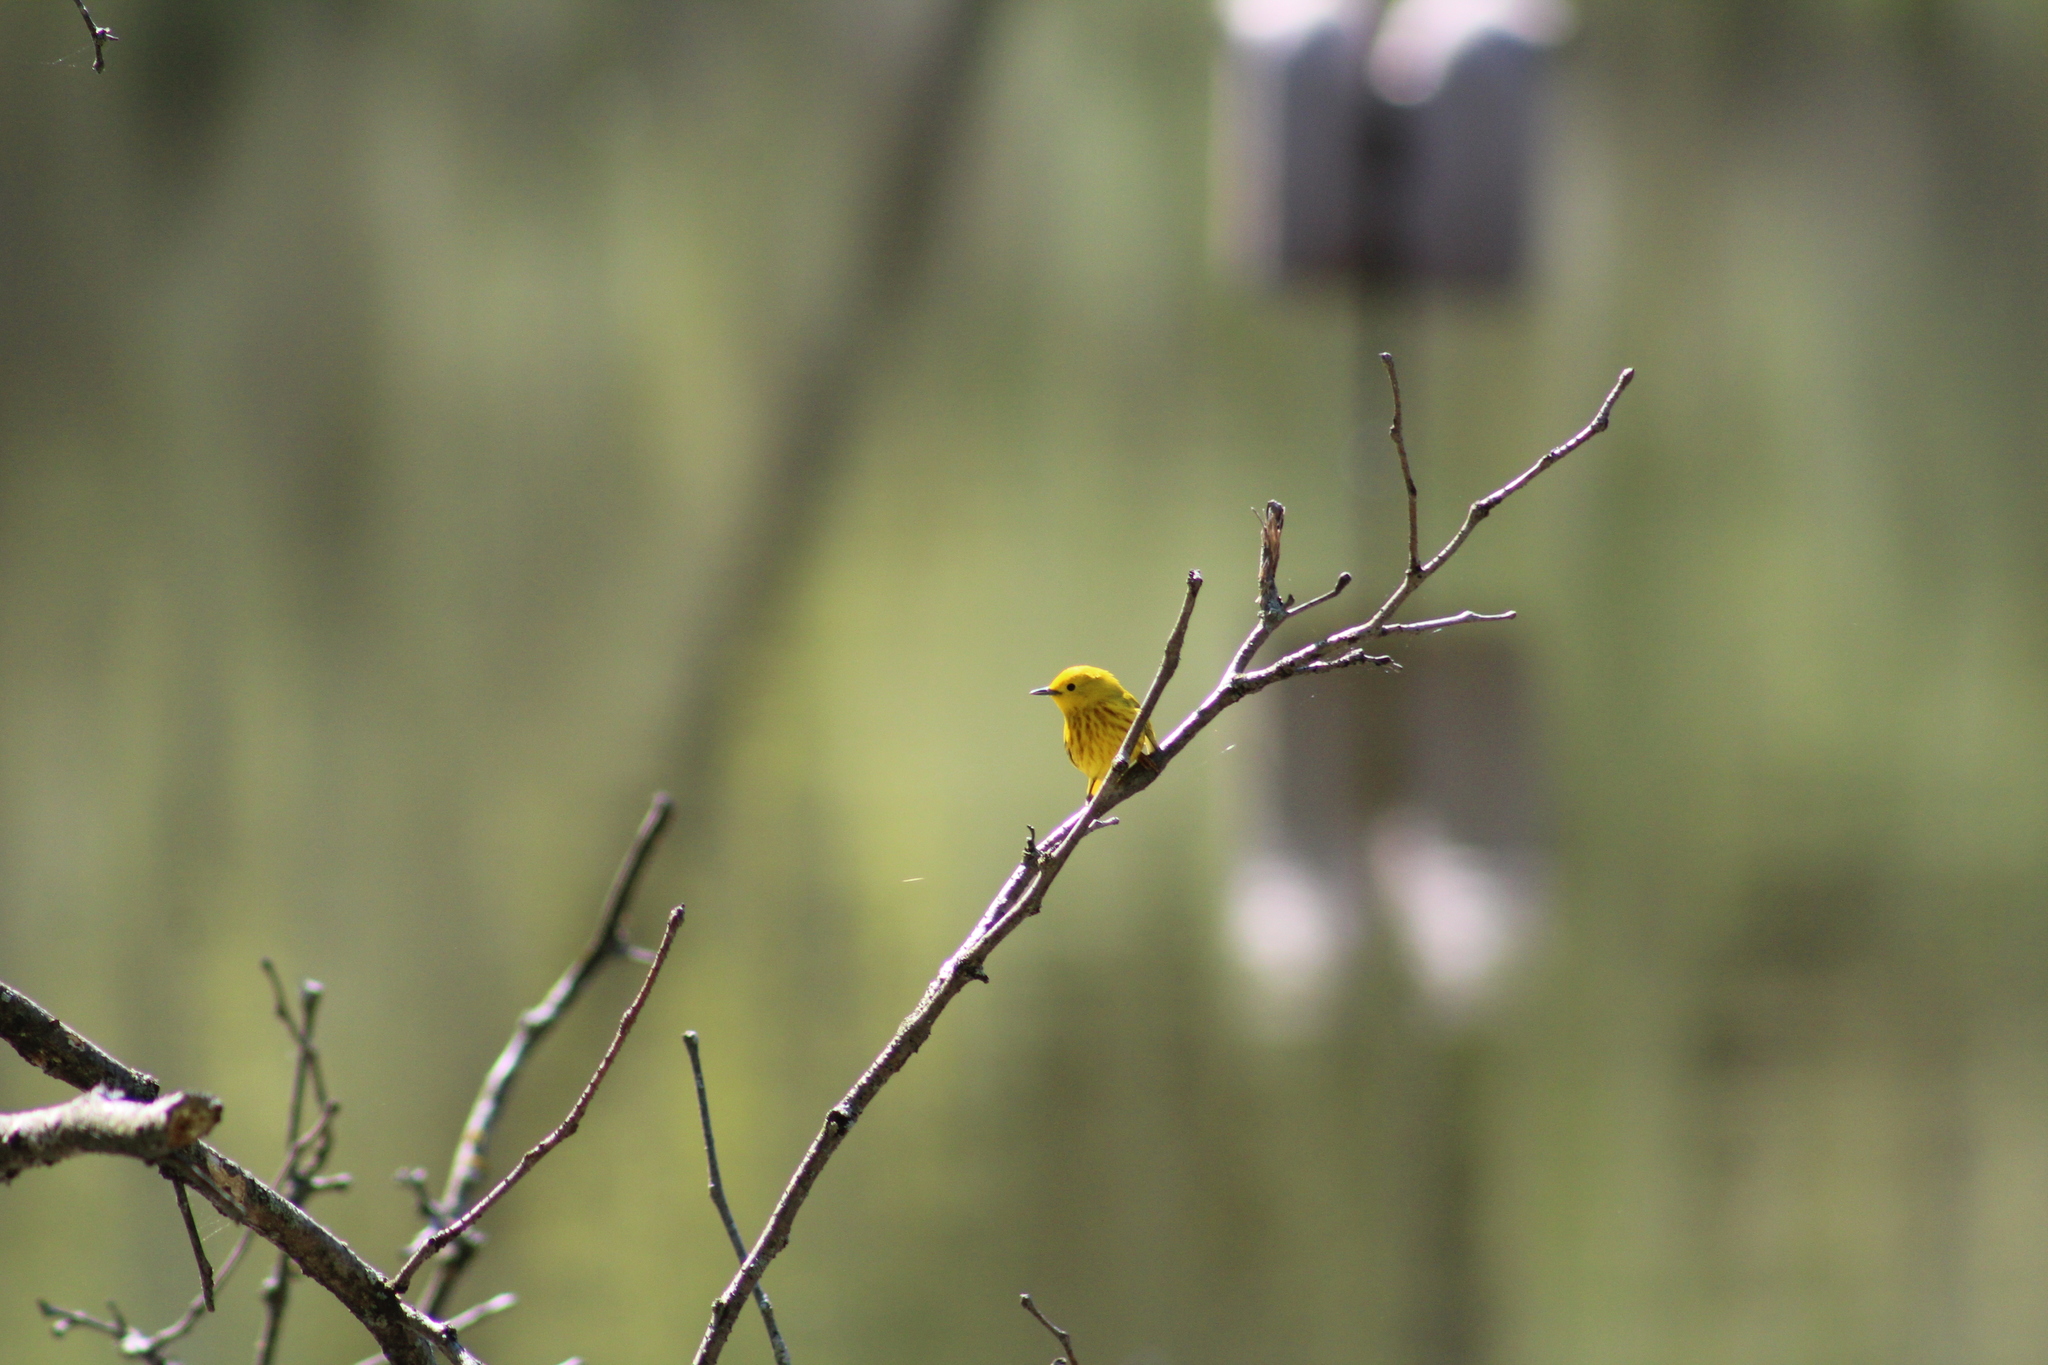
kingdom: Animalia
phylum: Chordata
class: Aves
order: Passeriformes
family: Parulidae
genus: Setophaga
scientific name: Setophaga petechia
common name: Yellow warbler
